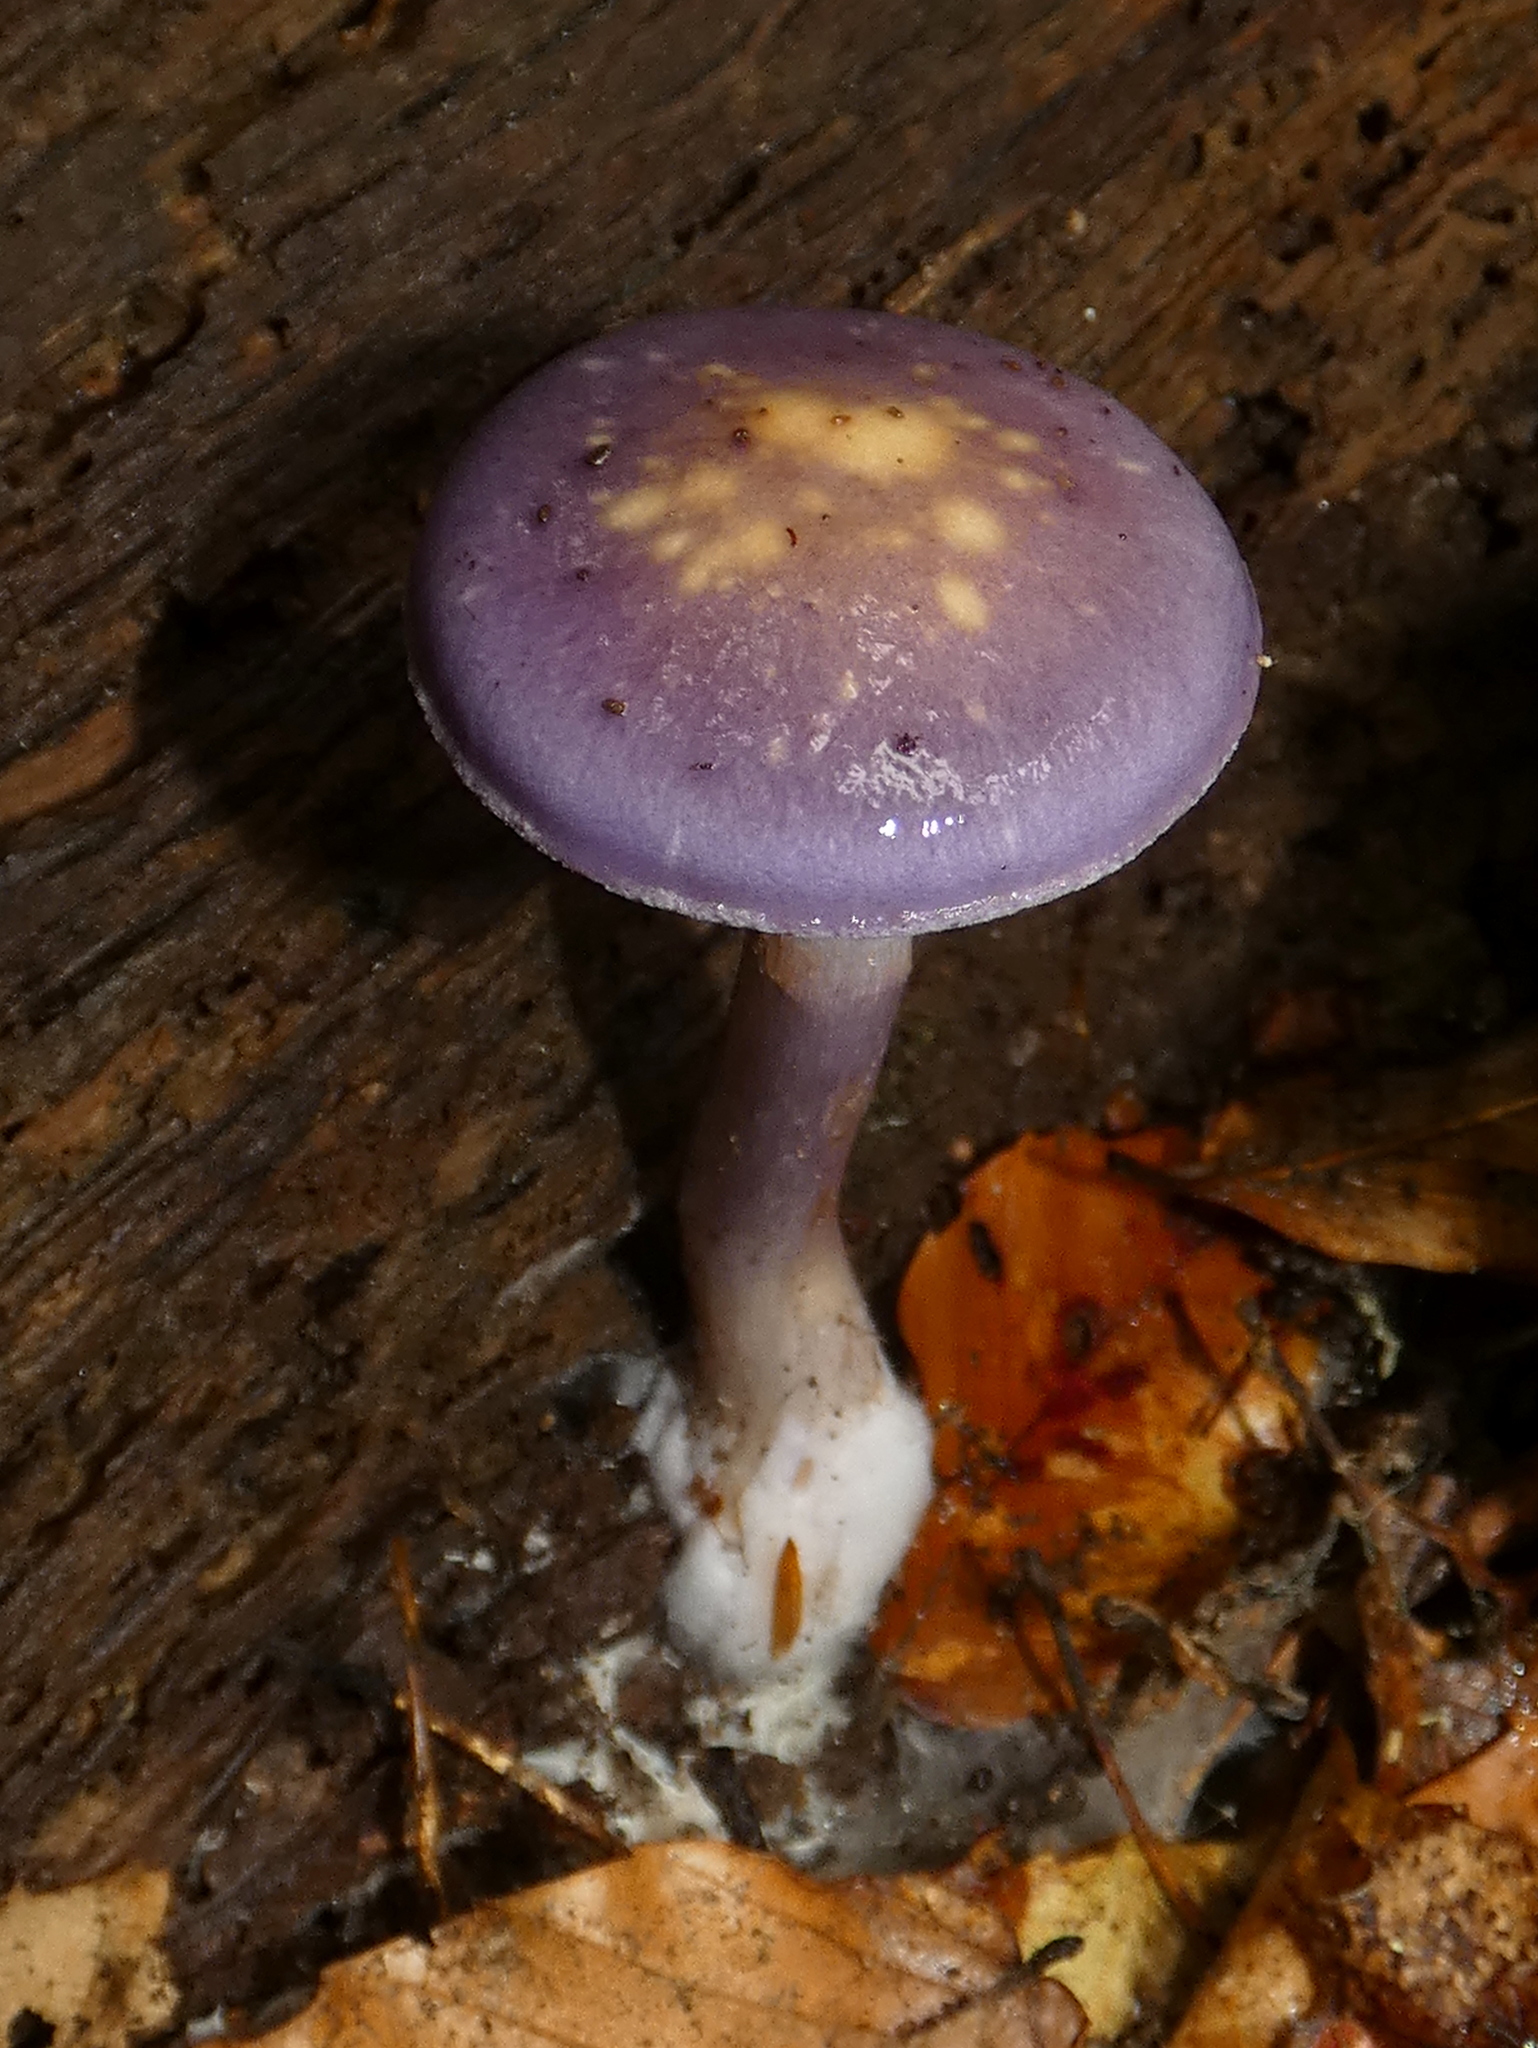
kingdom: Fungi
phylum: Basidiomycota
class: Agaricomycetes
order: Agaricales
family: Cortinariaceae
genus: Cortinarius
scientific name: Cortinarius iodes
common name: Viscid violet cort
